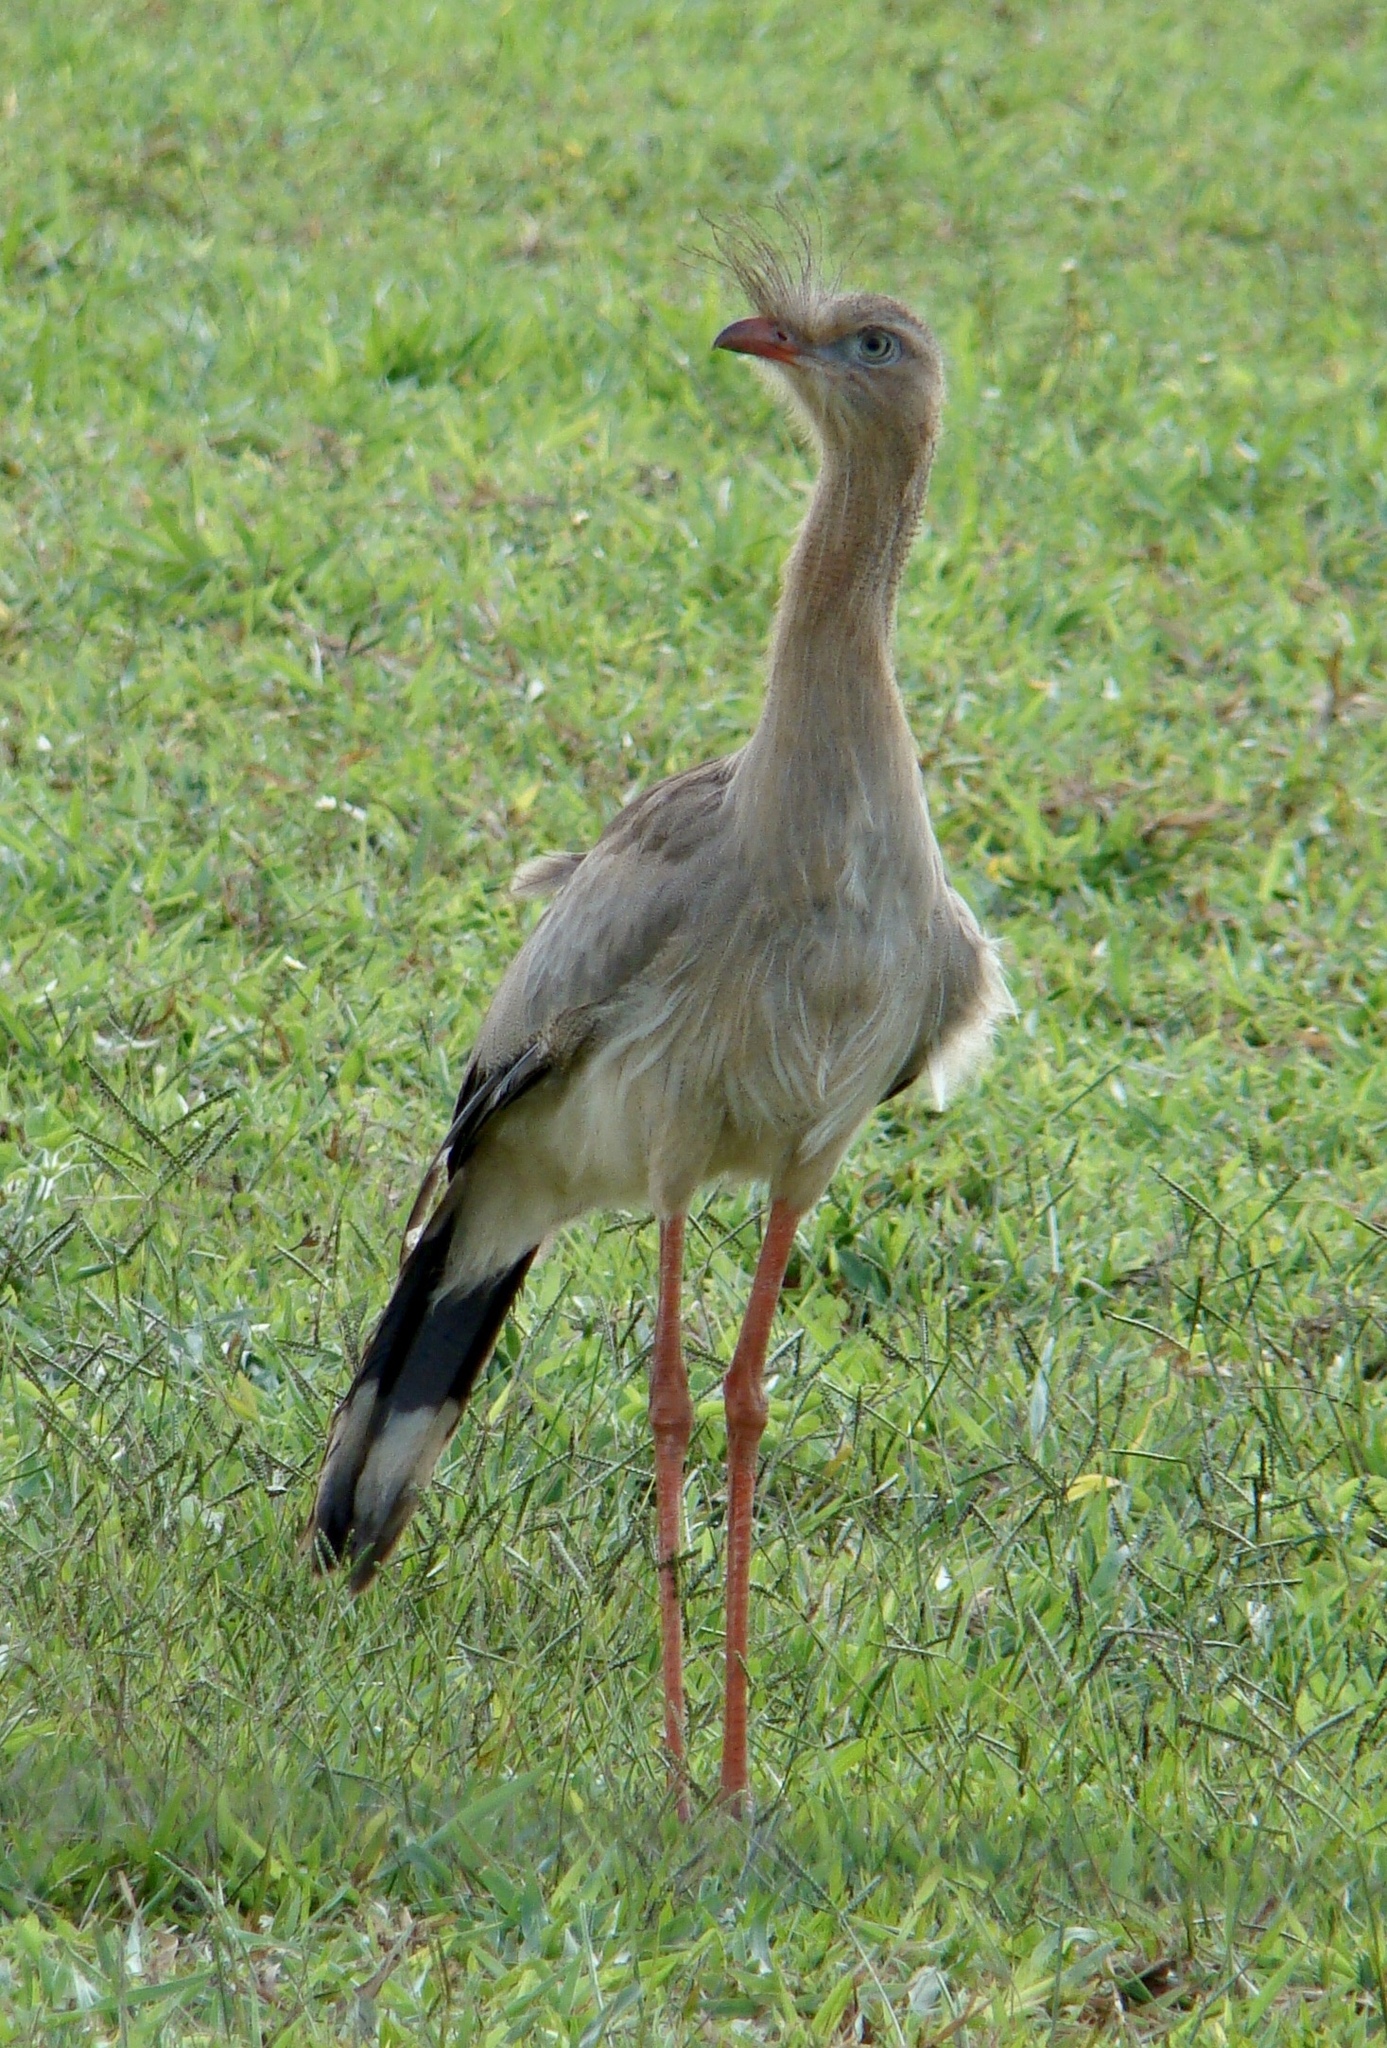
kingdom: Animalia
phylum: Chordata
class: Aves
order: Cariamiformes
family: Cariamidae
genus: Cariama
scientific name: Cariama cristata
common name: Red-legged seriema
